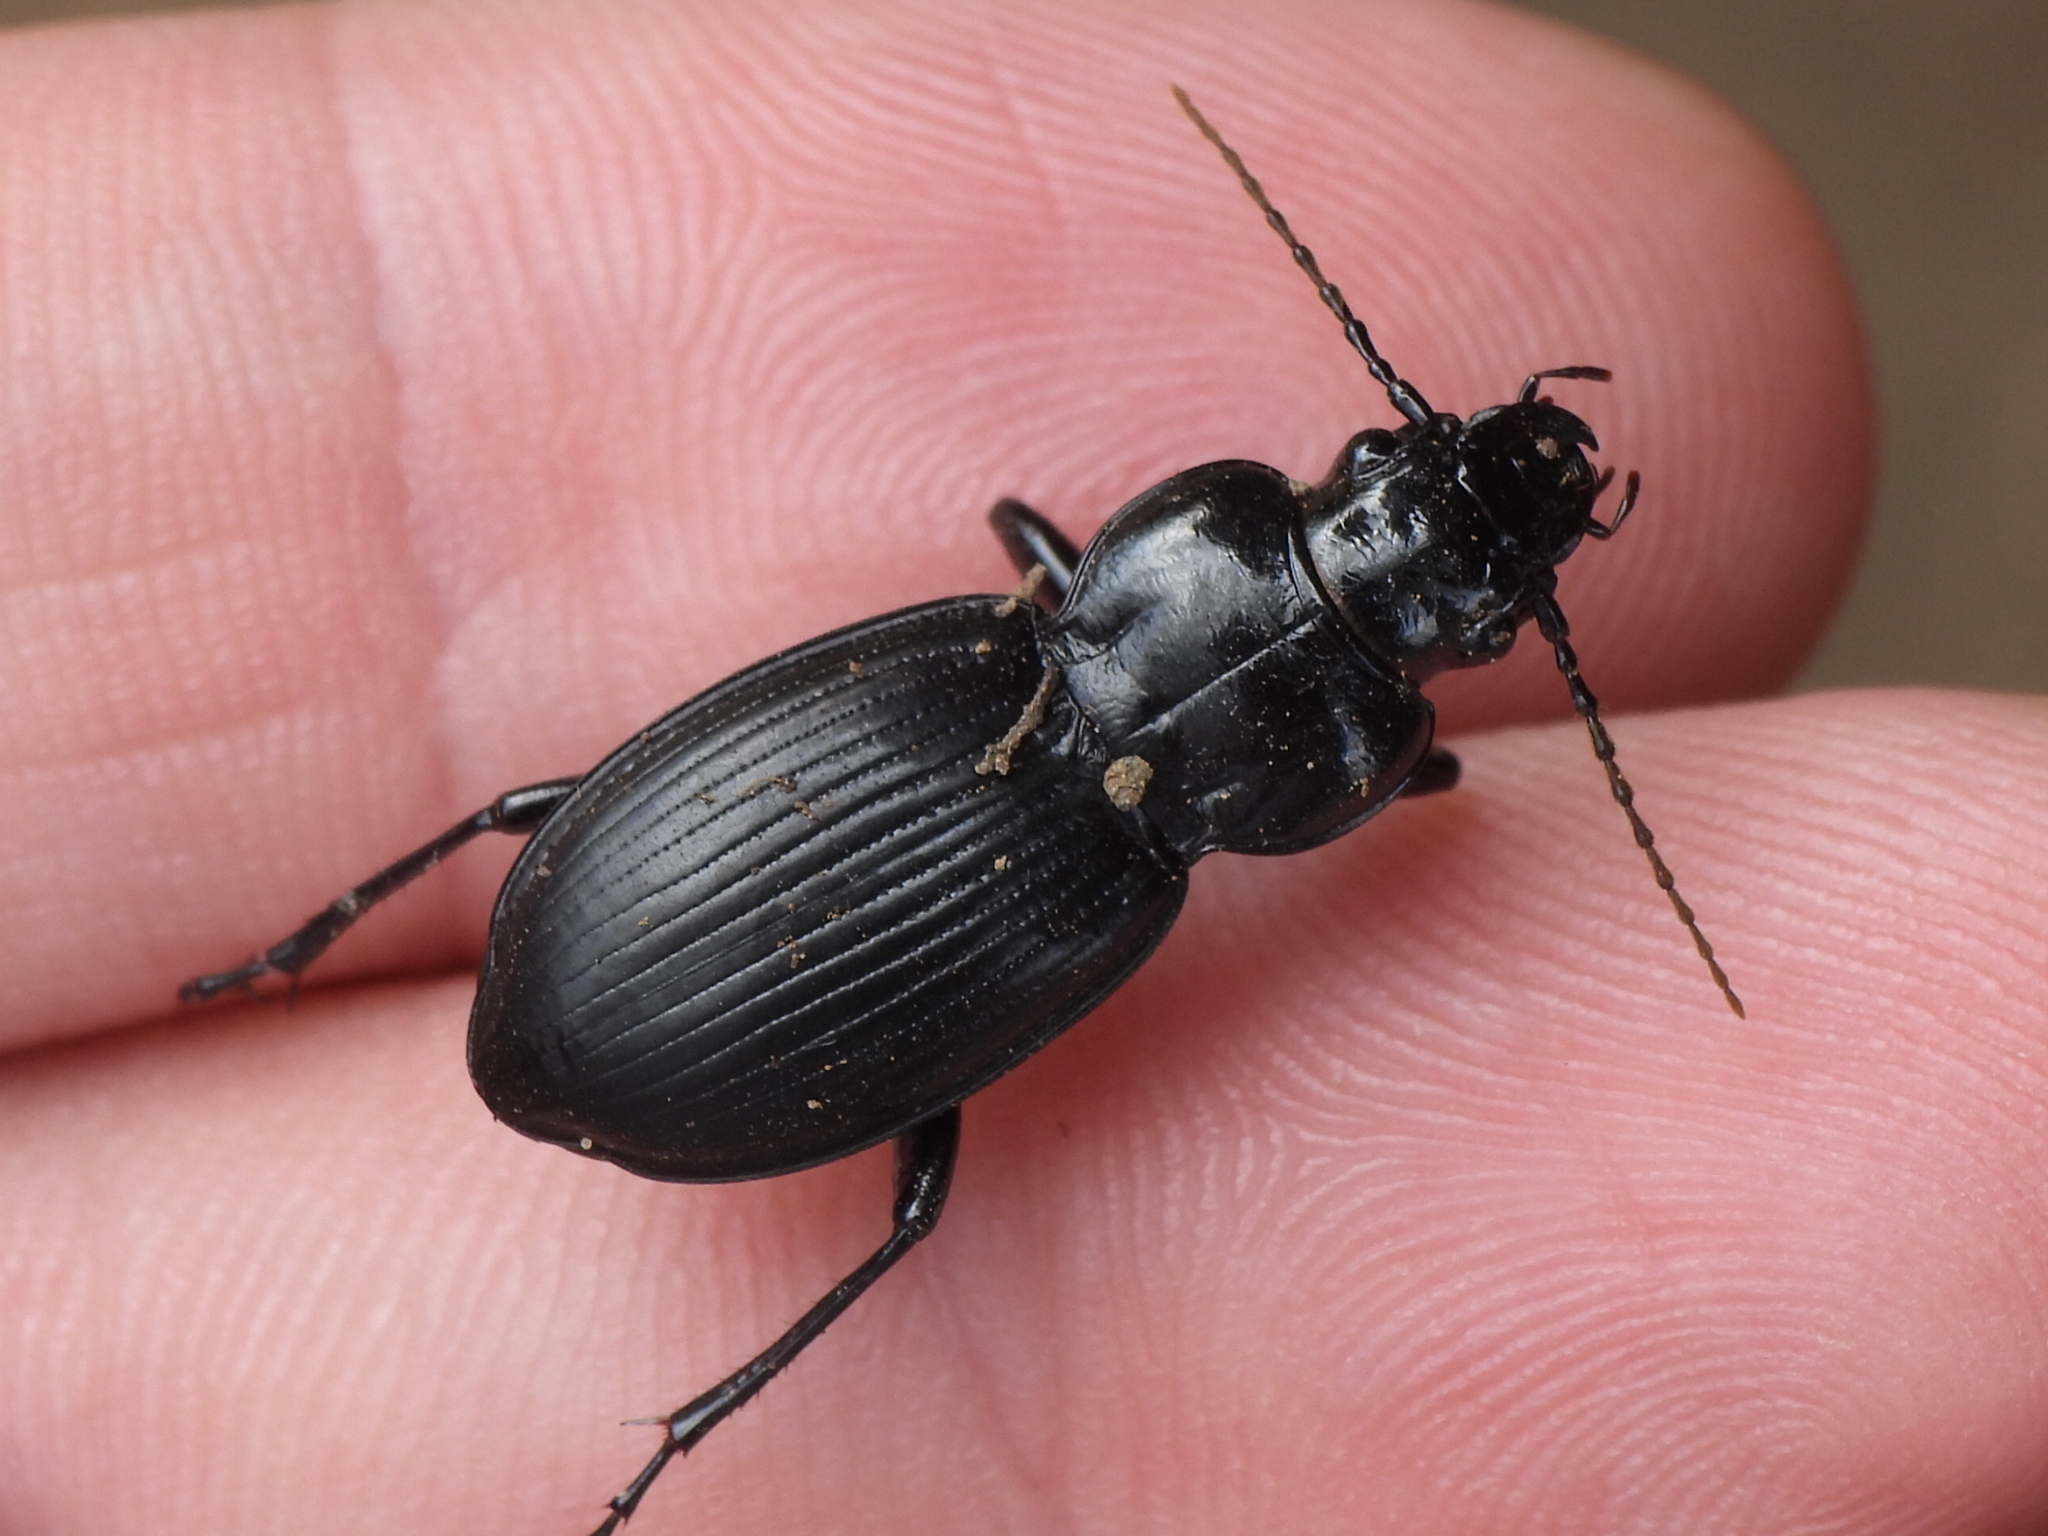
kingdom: Animalia
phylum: Arthropoda
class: Insecta
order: Coleoptera
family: Carabidae
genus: Cyclotrachelus
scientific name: Cyclotrachelus
